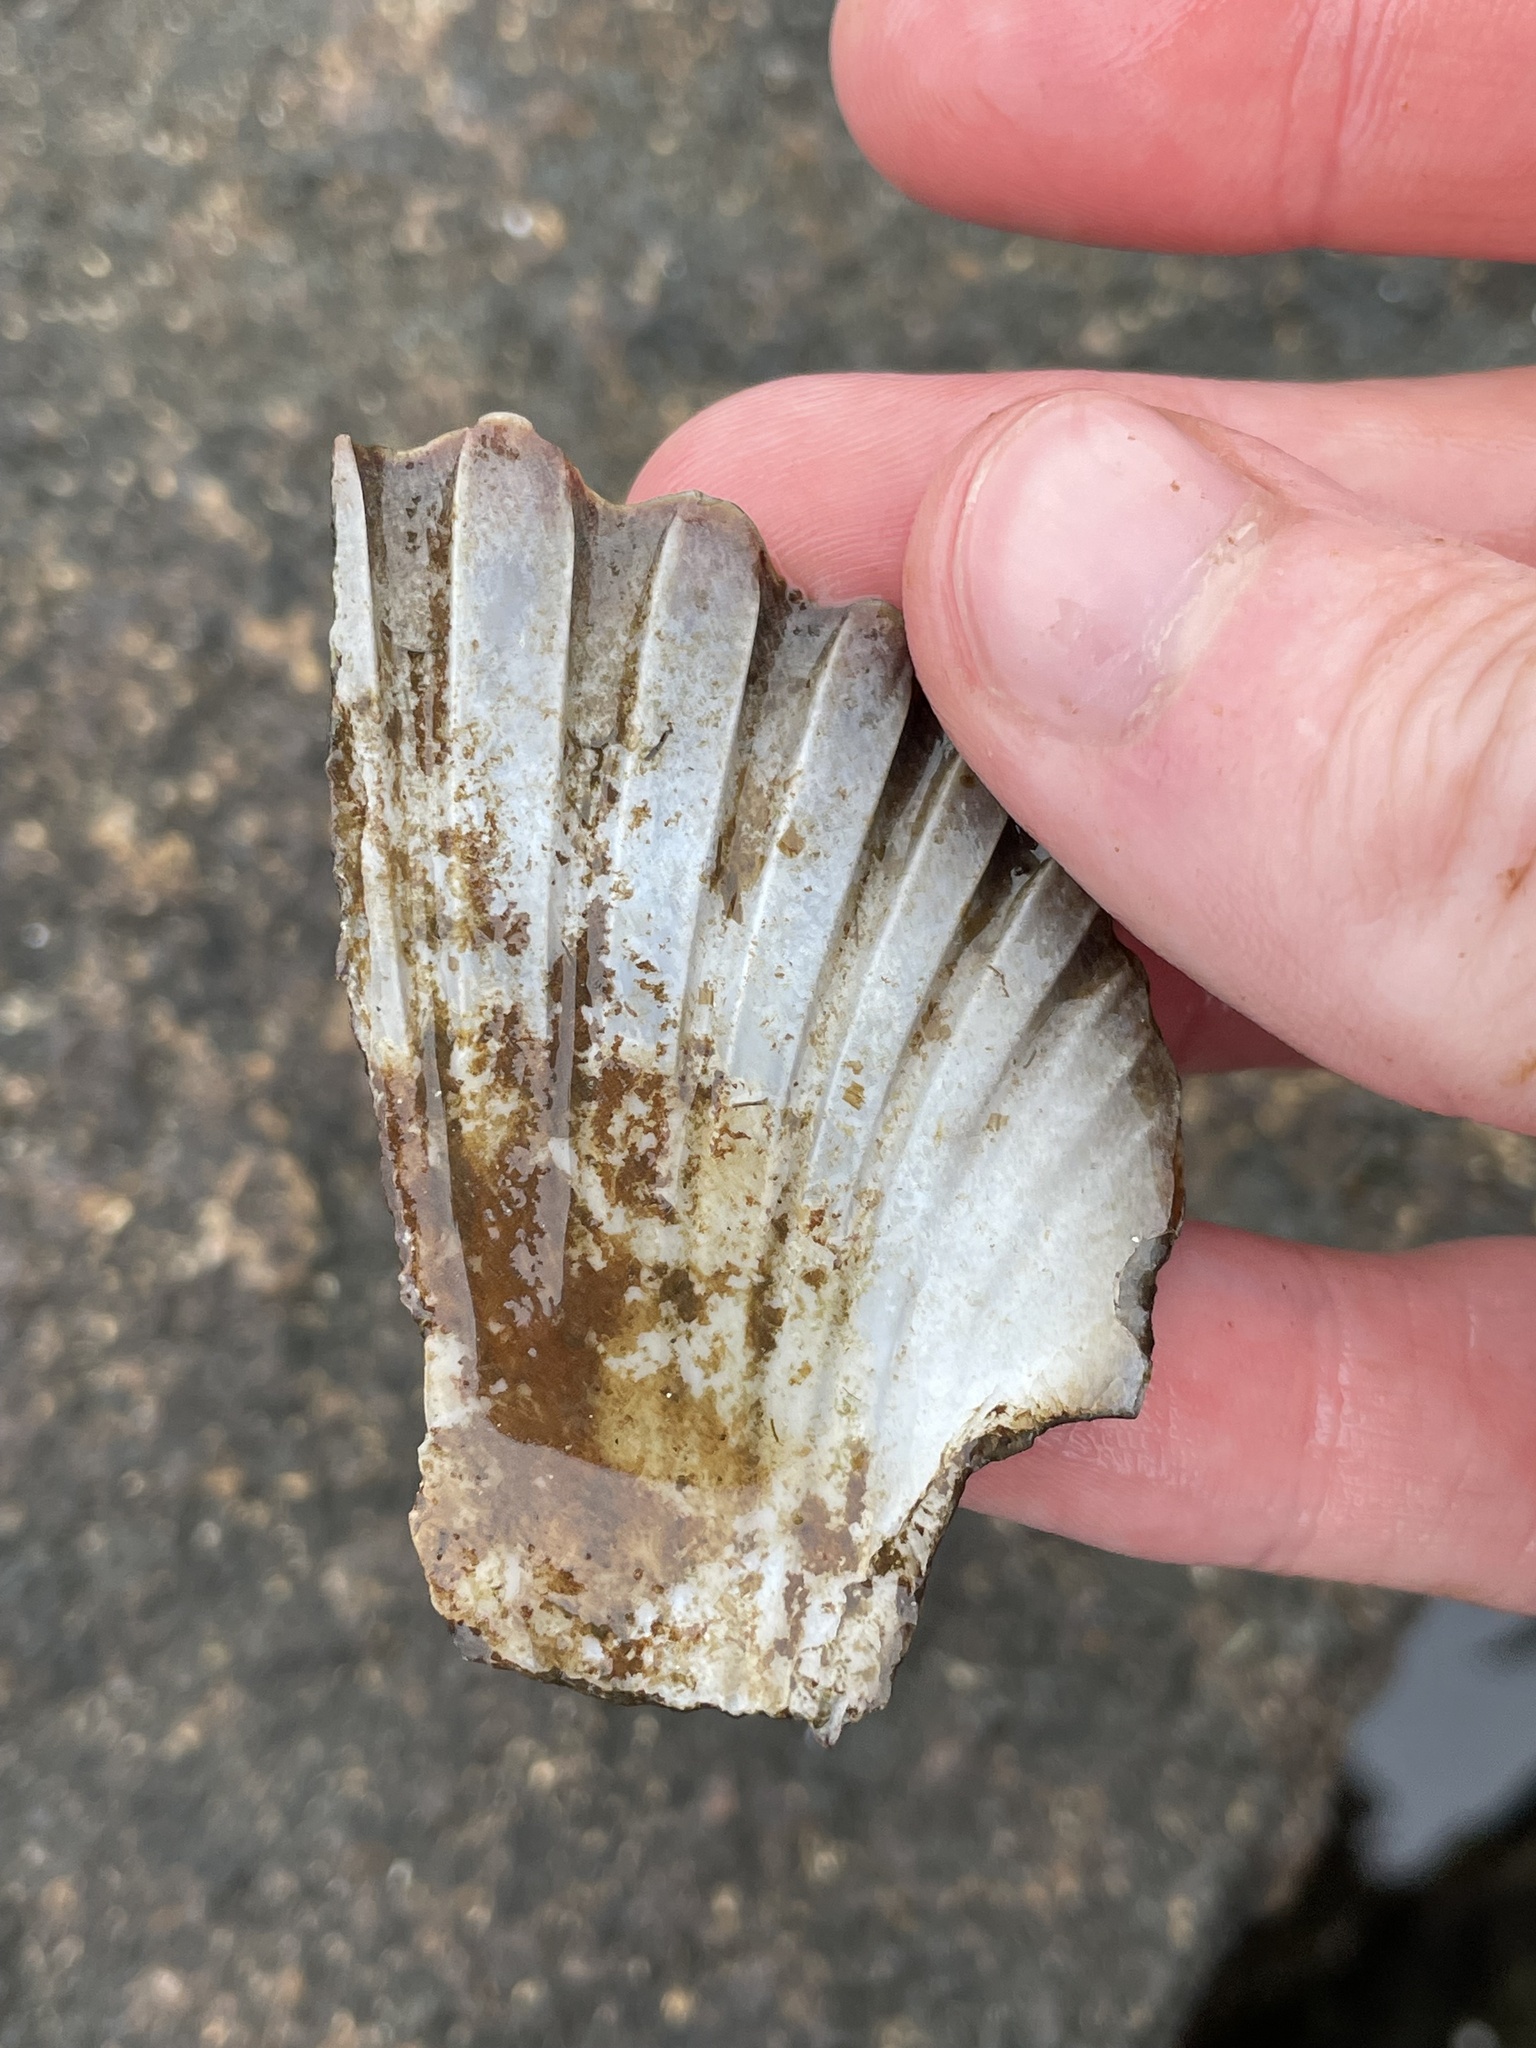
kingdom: Animalia
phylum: Mollusca
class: Bivalvia
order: Pectinida
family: Pectinidae
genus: Argopecten
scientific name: Argopecten irradians
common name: Atlantic bay scallop
